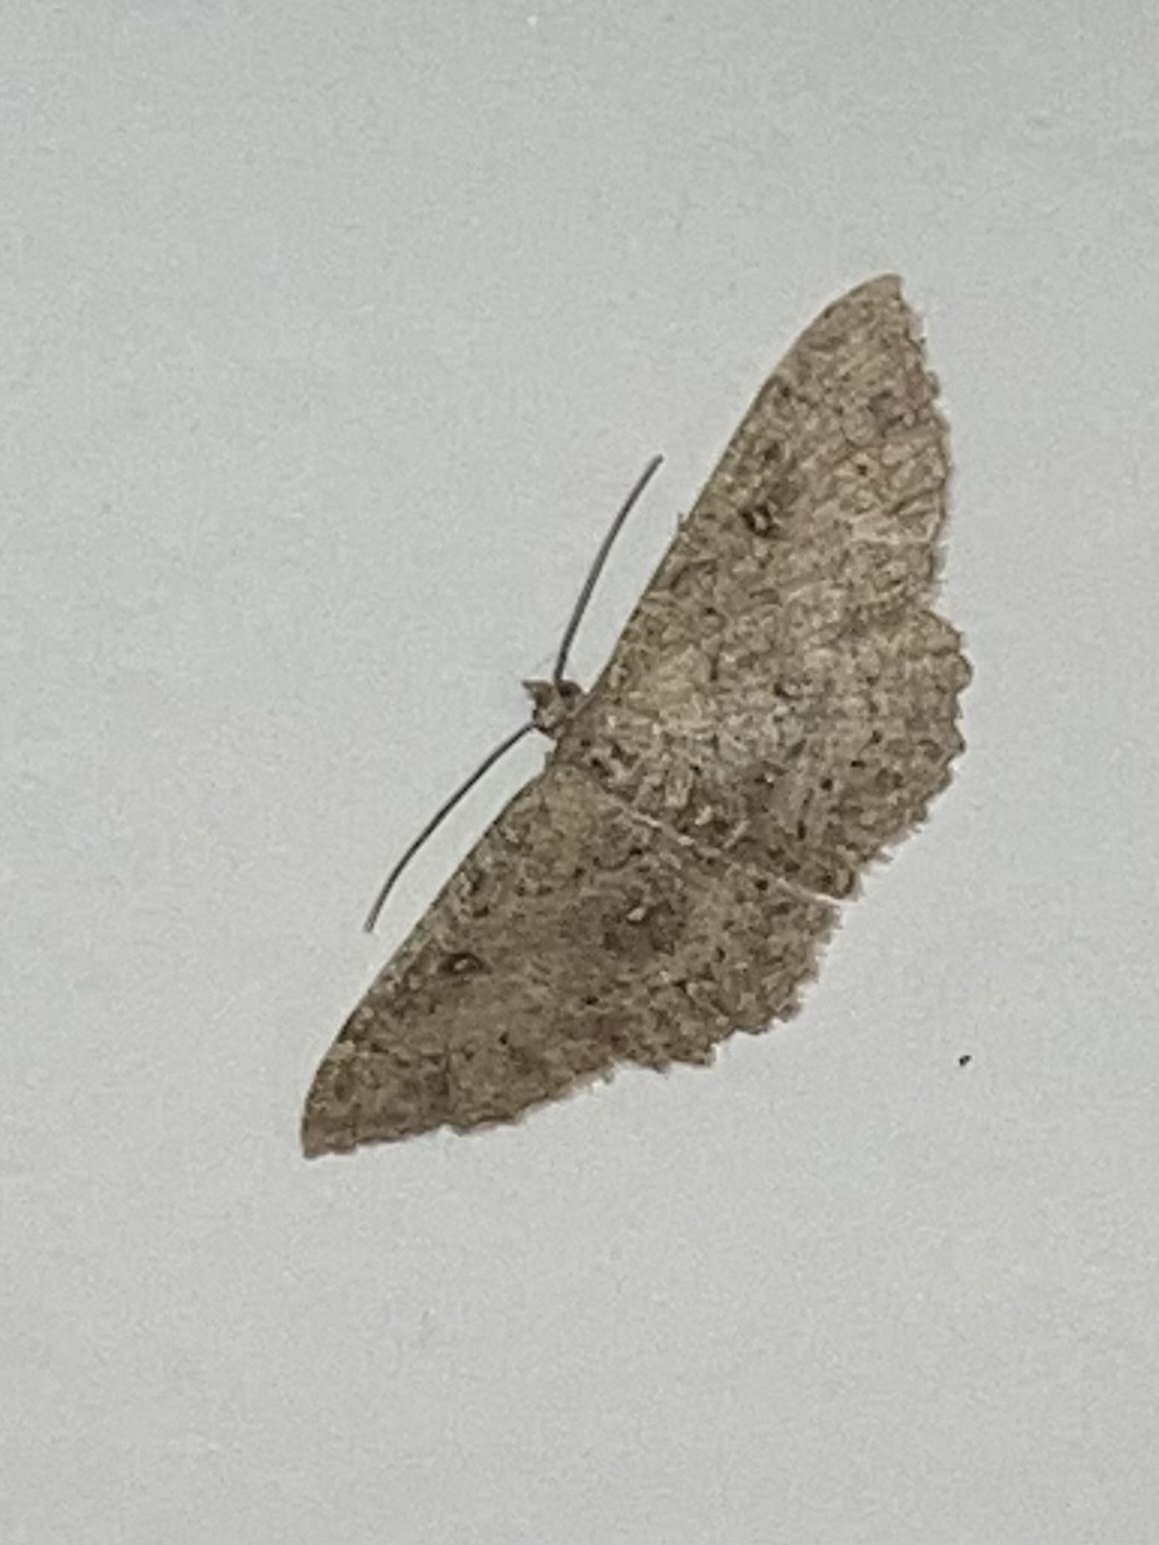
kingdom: Animalia
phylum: Arthropoda
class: Insecta
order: Lepidoptera
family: Geometridae
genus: Cyclophora
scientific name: Cyclophora nanaria
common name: Cankerworm
